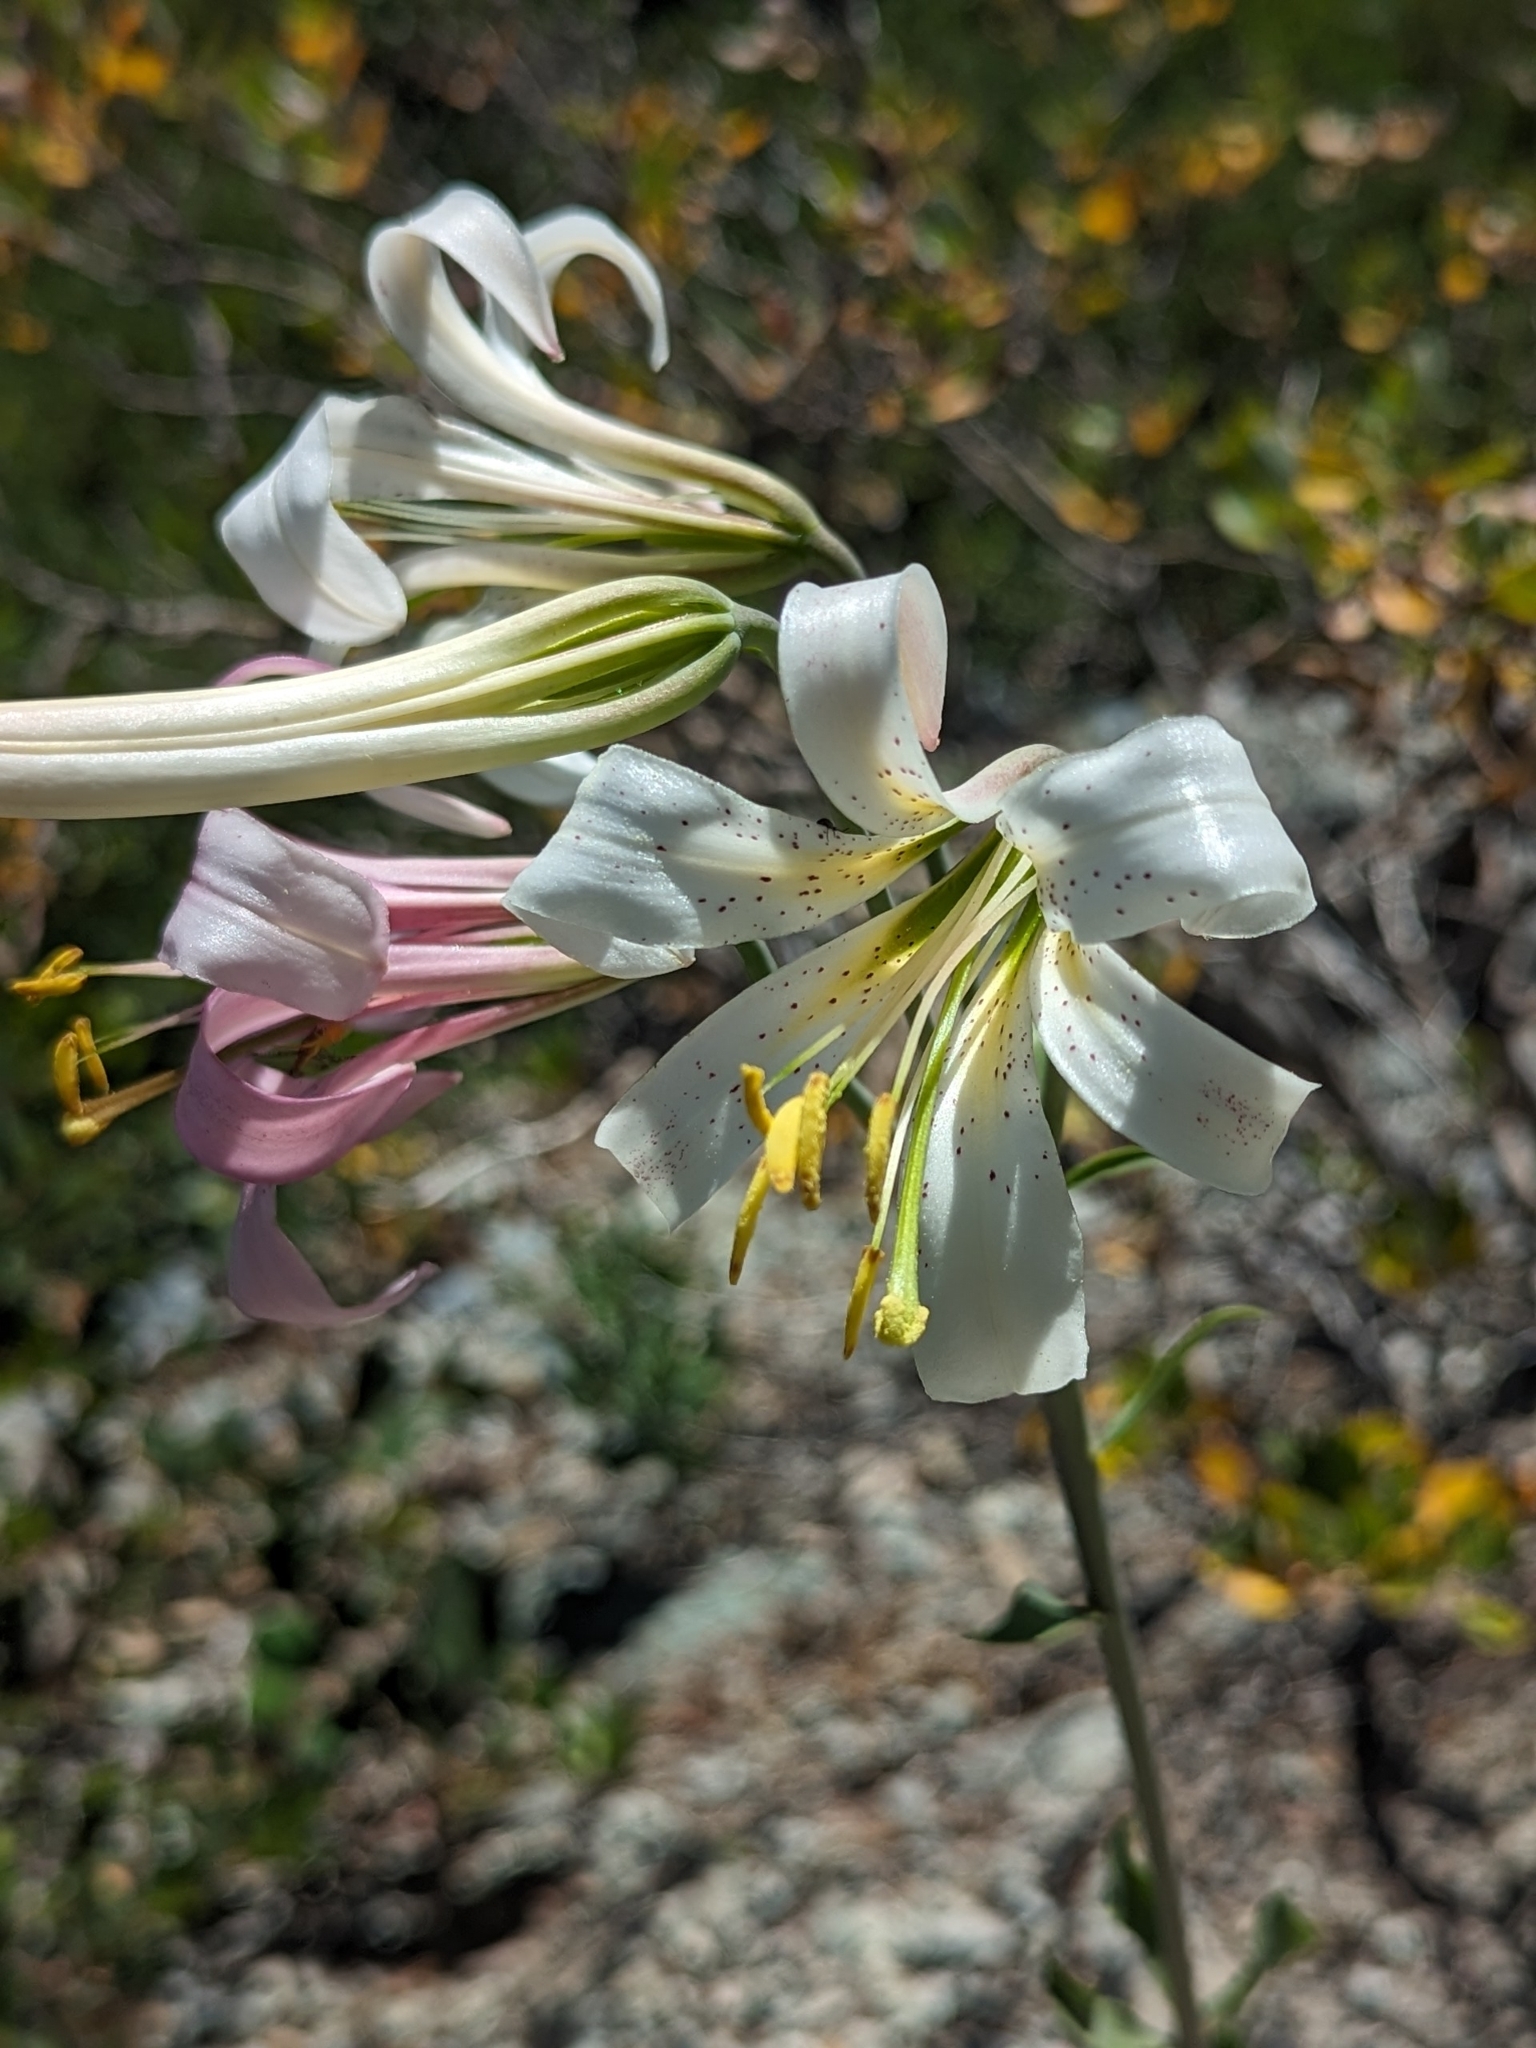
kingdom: Plantae
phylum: Tracheophyta
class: Liliopsida
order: Liliales
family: Liliaceae
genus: Lilium
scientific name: Lilium washingtonianum
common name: Washington lily
